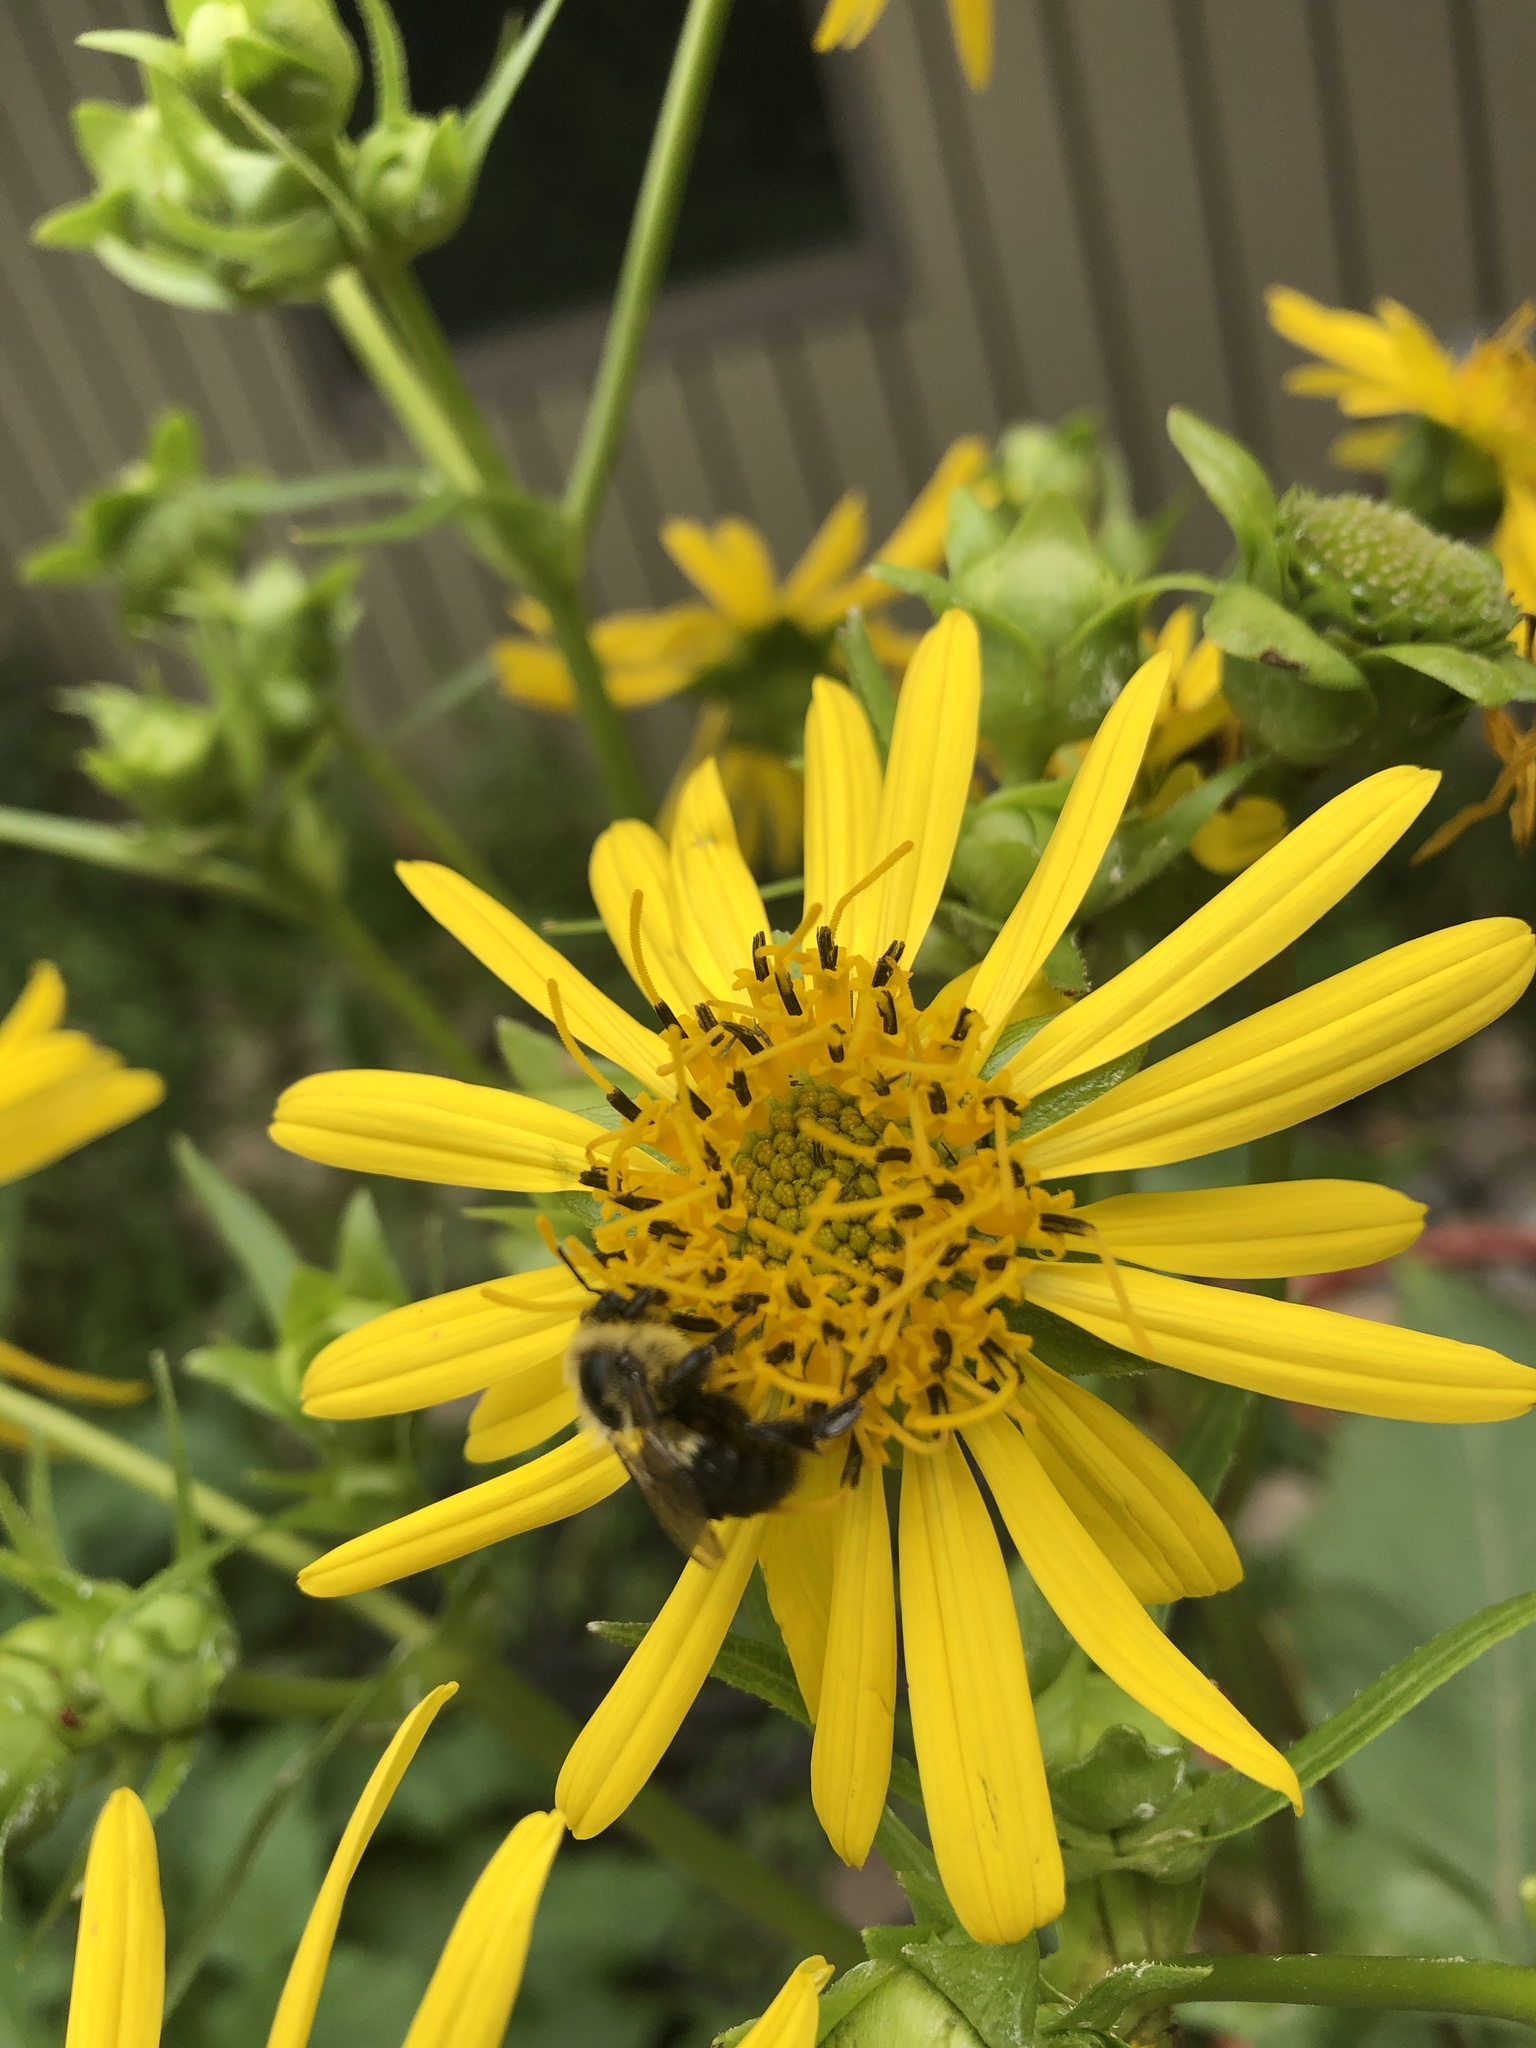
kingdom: Animalia
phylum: Arthropoda
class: Insecta
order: Hymenoptera
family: Apidae
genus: Bombus
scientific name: Bombus impatiens
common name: Common eastern bumble bee
